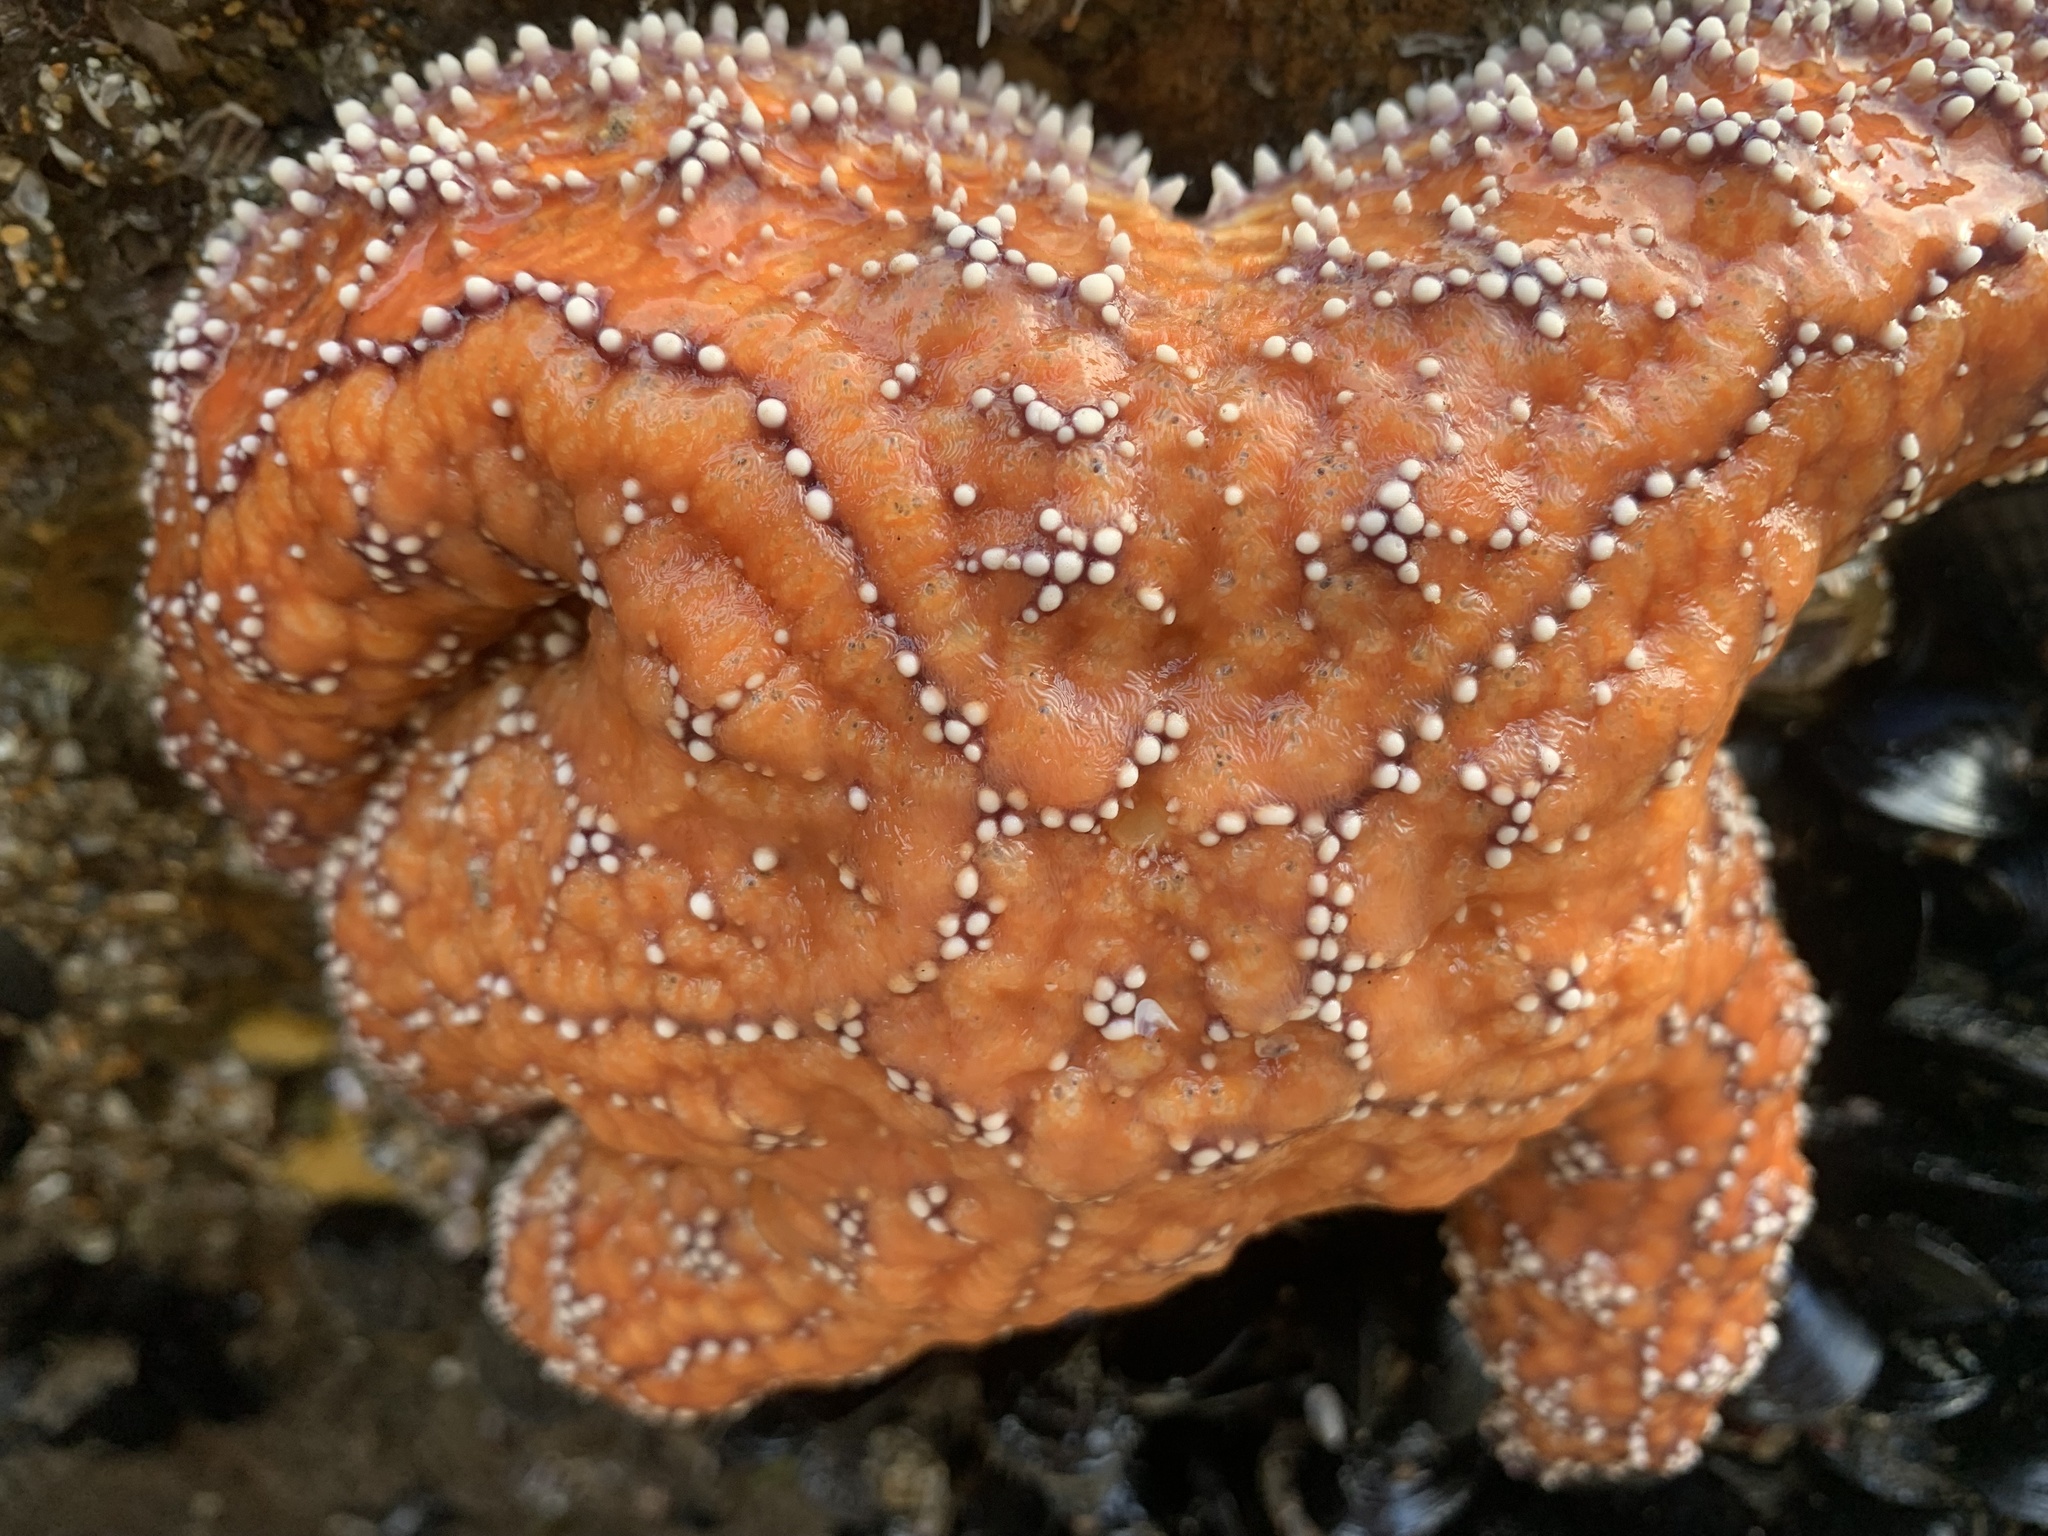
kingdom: Animalia
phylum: Echinodermata
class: Asteroidea
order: Forcipulatida
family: Asteriidae
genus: Pisaster
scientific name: Pisaster ochraceus
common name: Ochre stars
